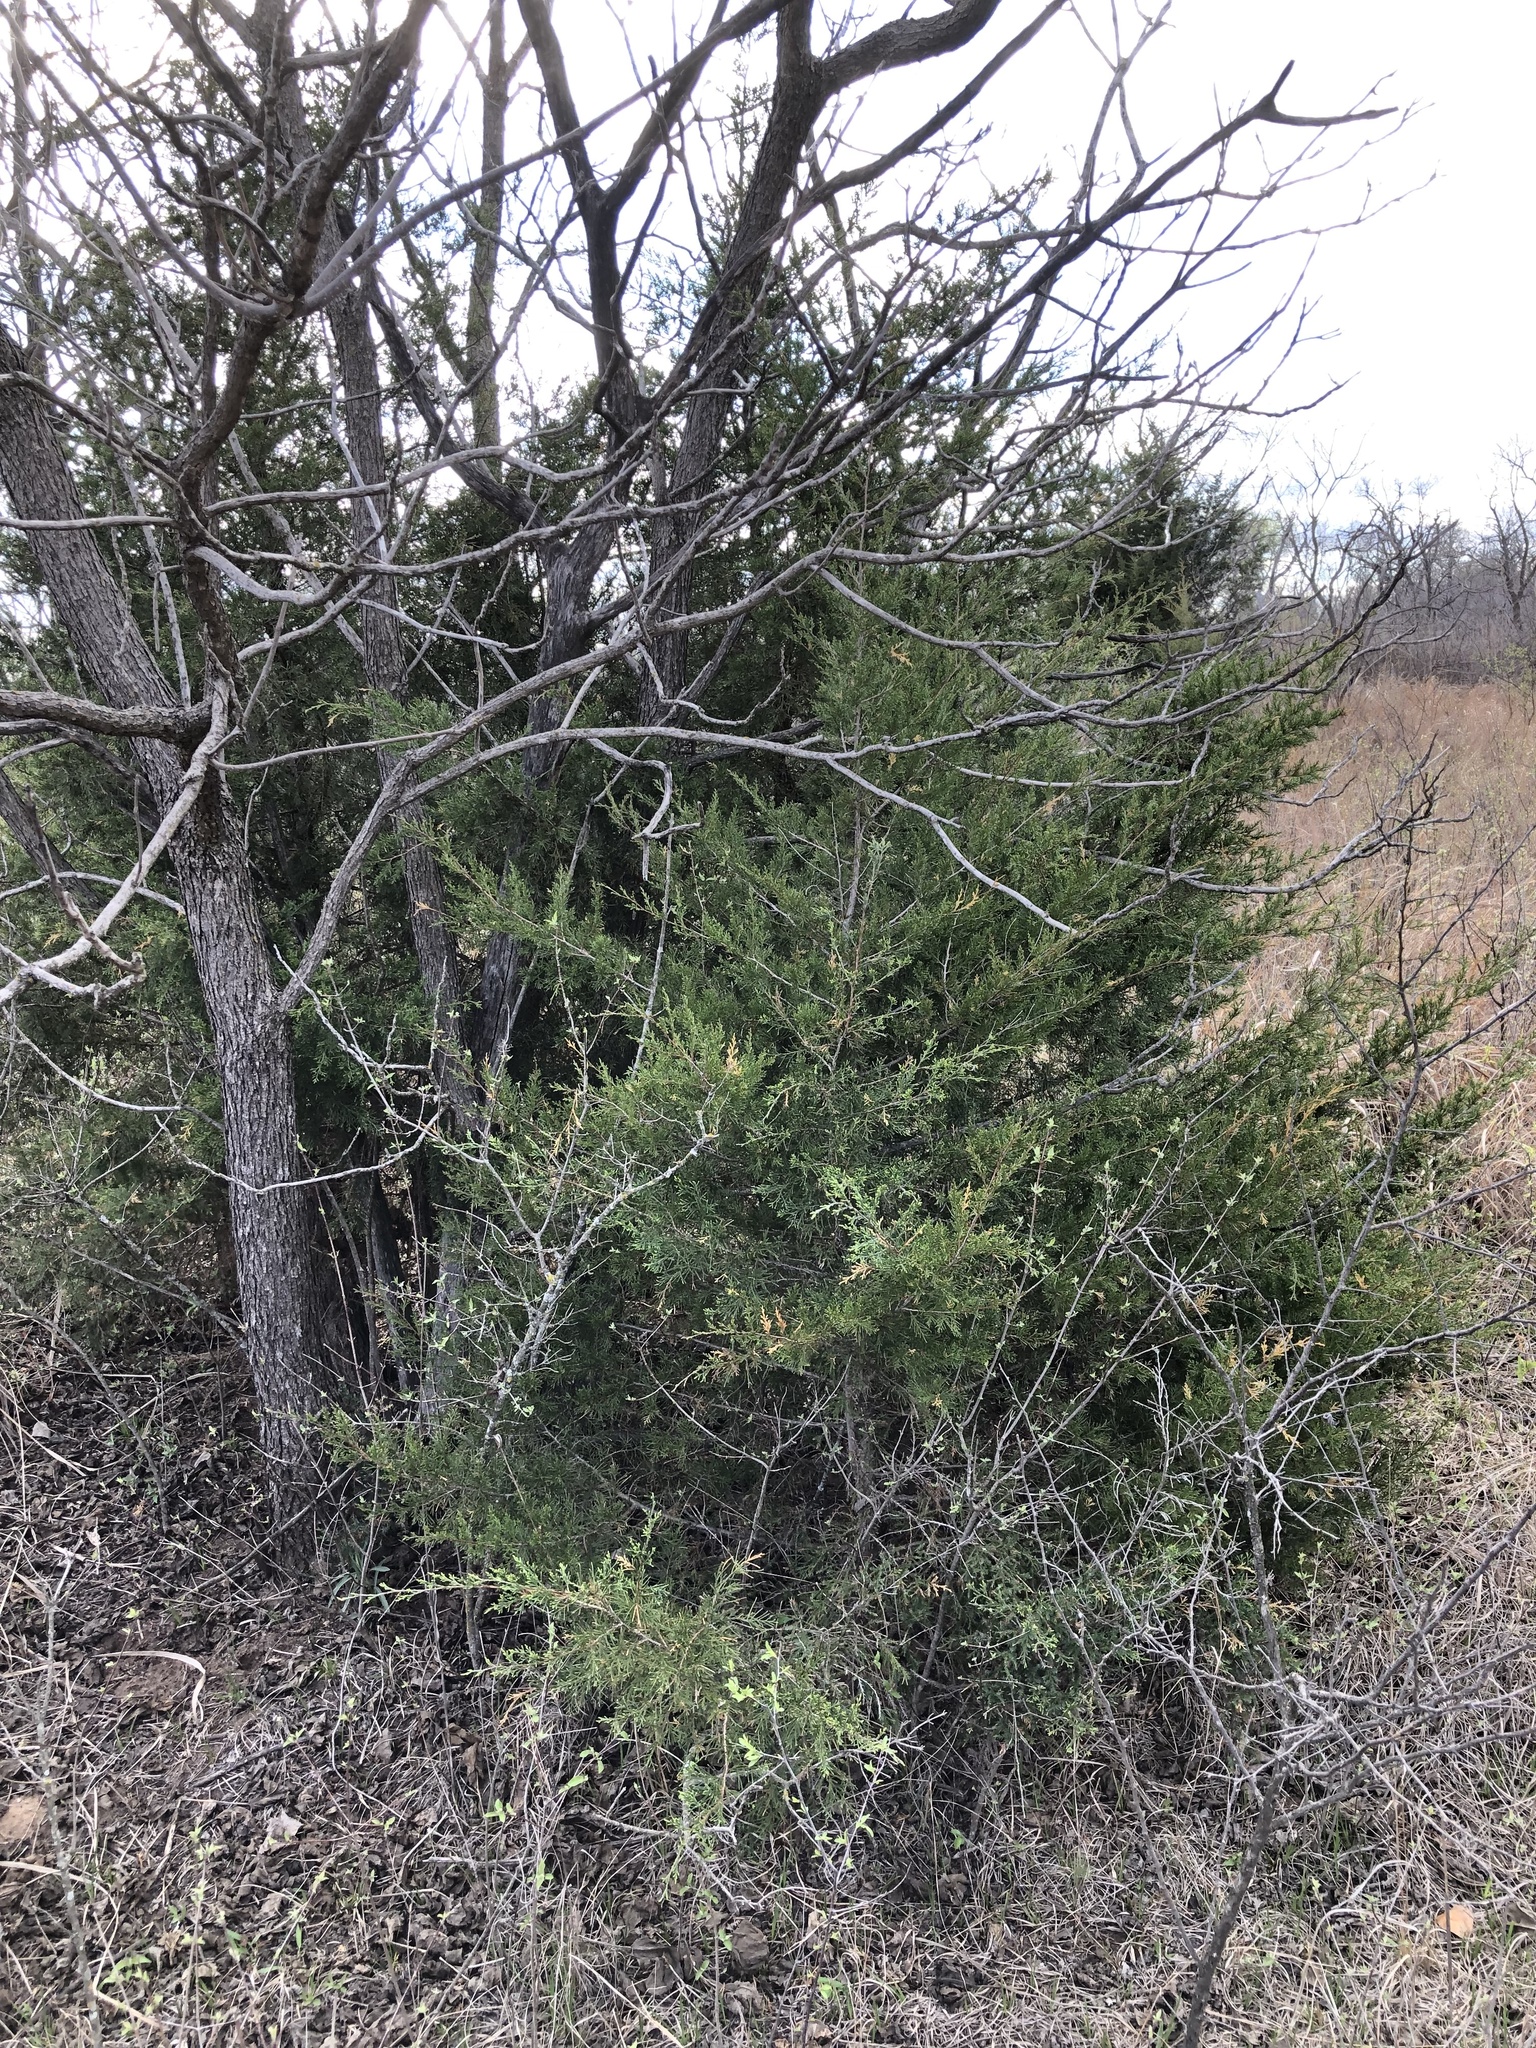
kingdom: Plantae
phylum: Tracheophyta
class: Pinopsida
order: Pinales
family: Cupressaceae
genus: Juniperus
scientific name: Juniperus virginiana
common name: Red juniper
